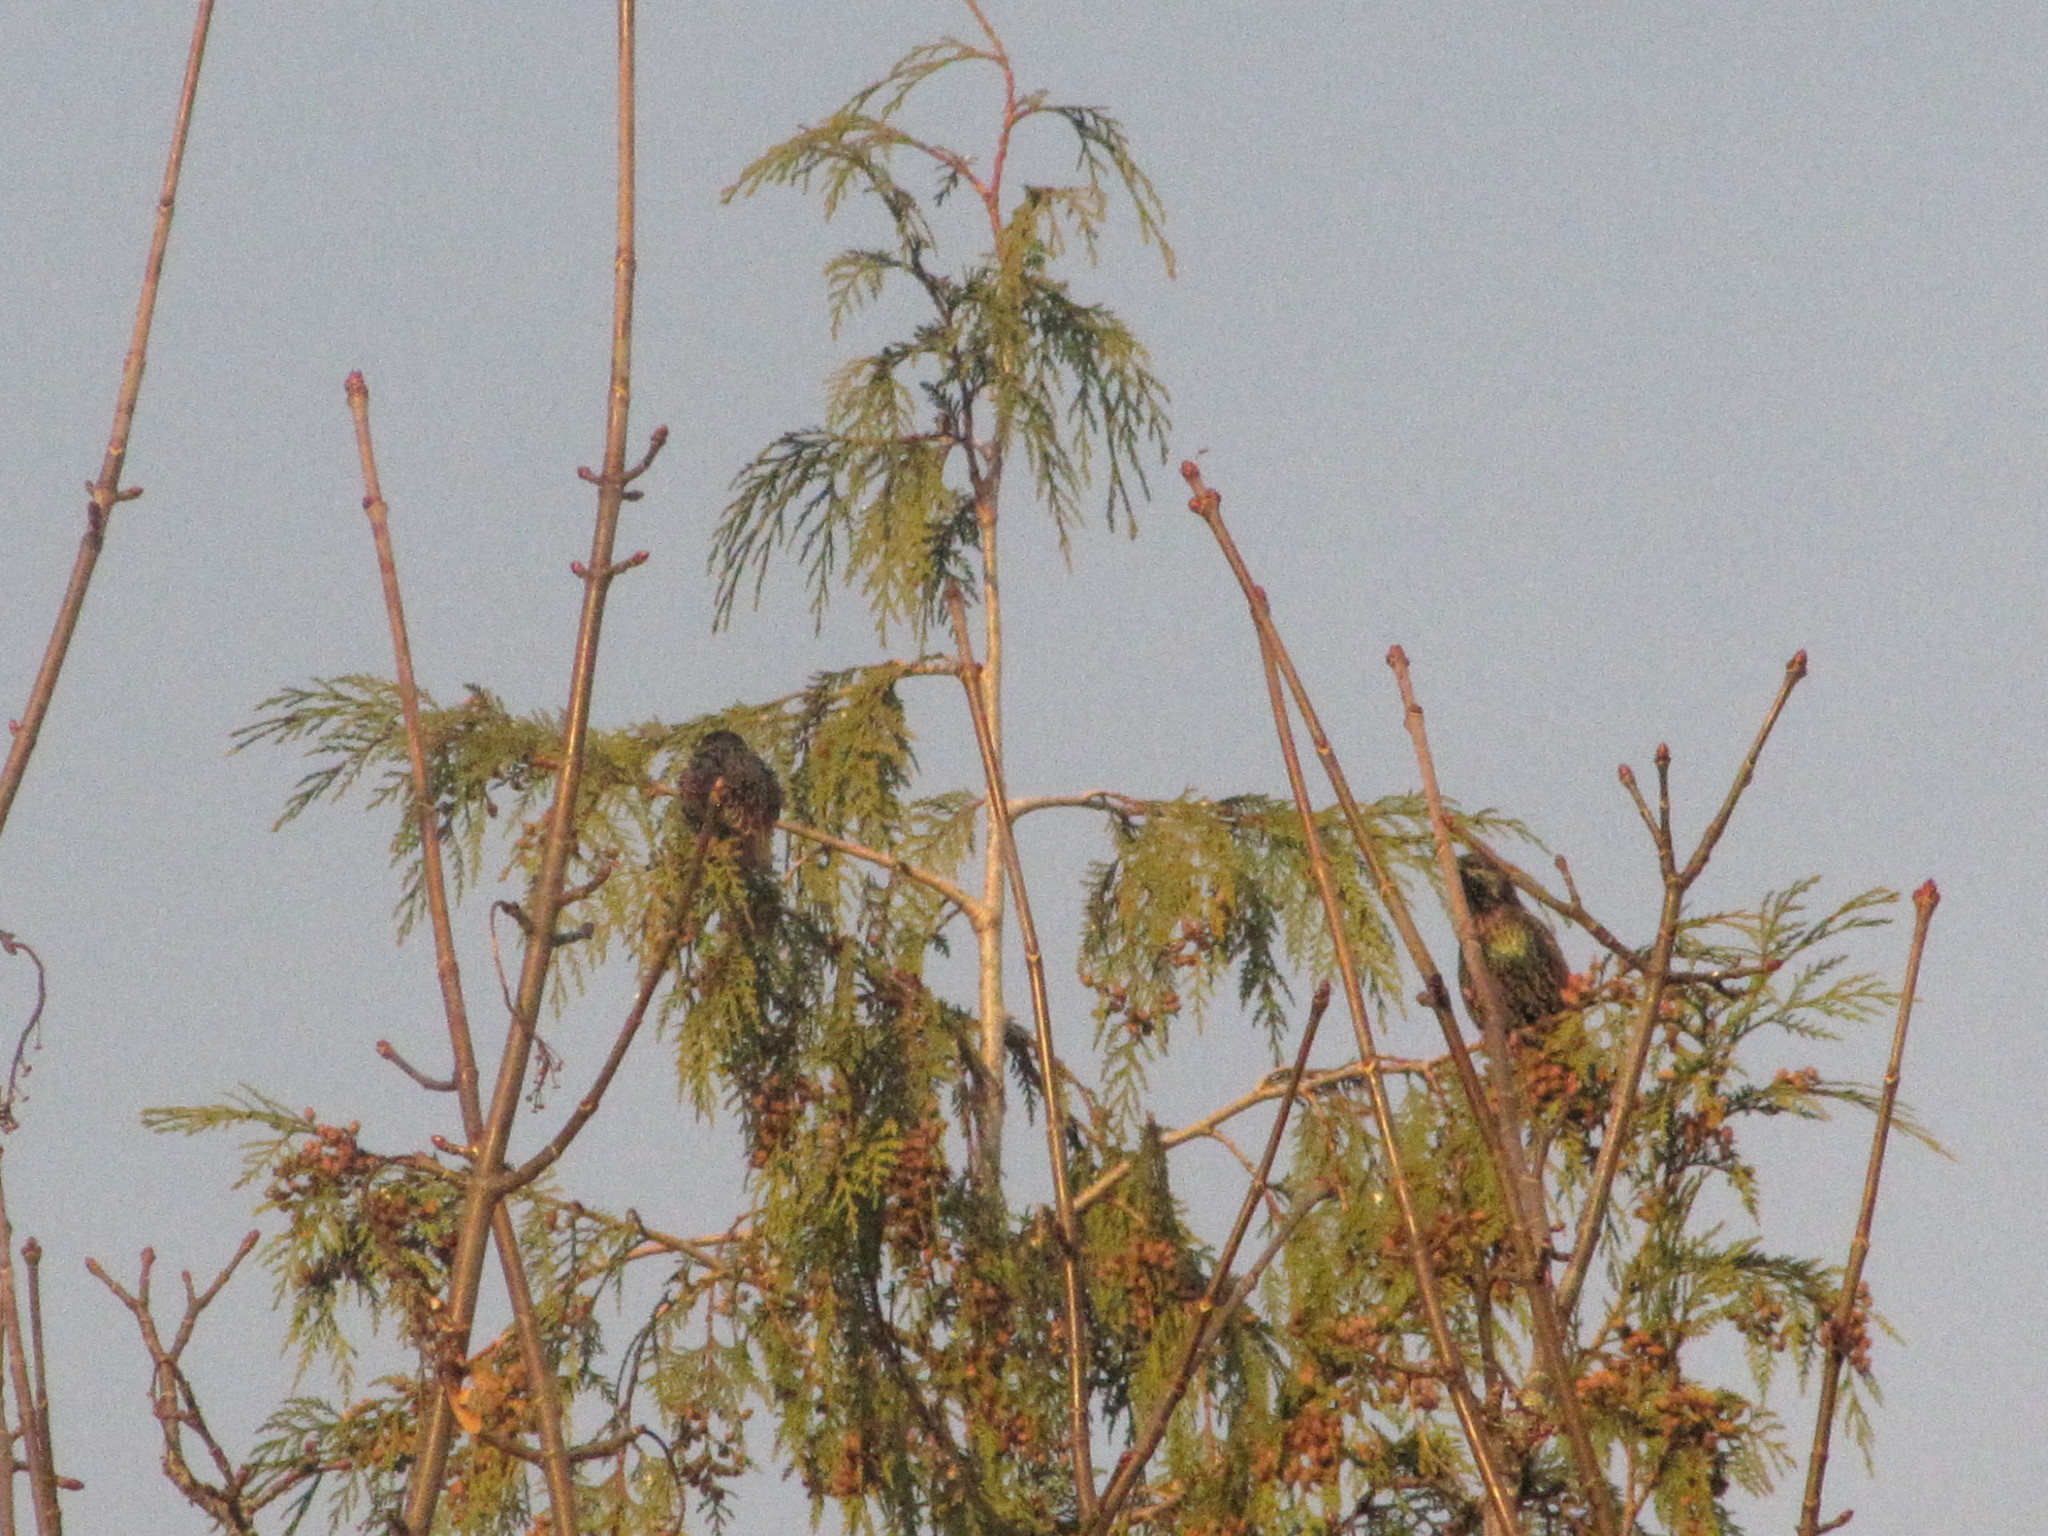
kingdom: Animalia
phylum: Chordata
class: Aves
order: Passeriformes
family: Sturnidae
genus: Sturnus
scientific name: Sturnus vulgaris
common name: Common starling
